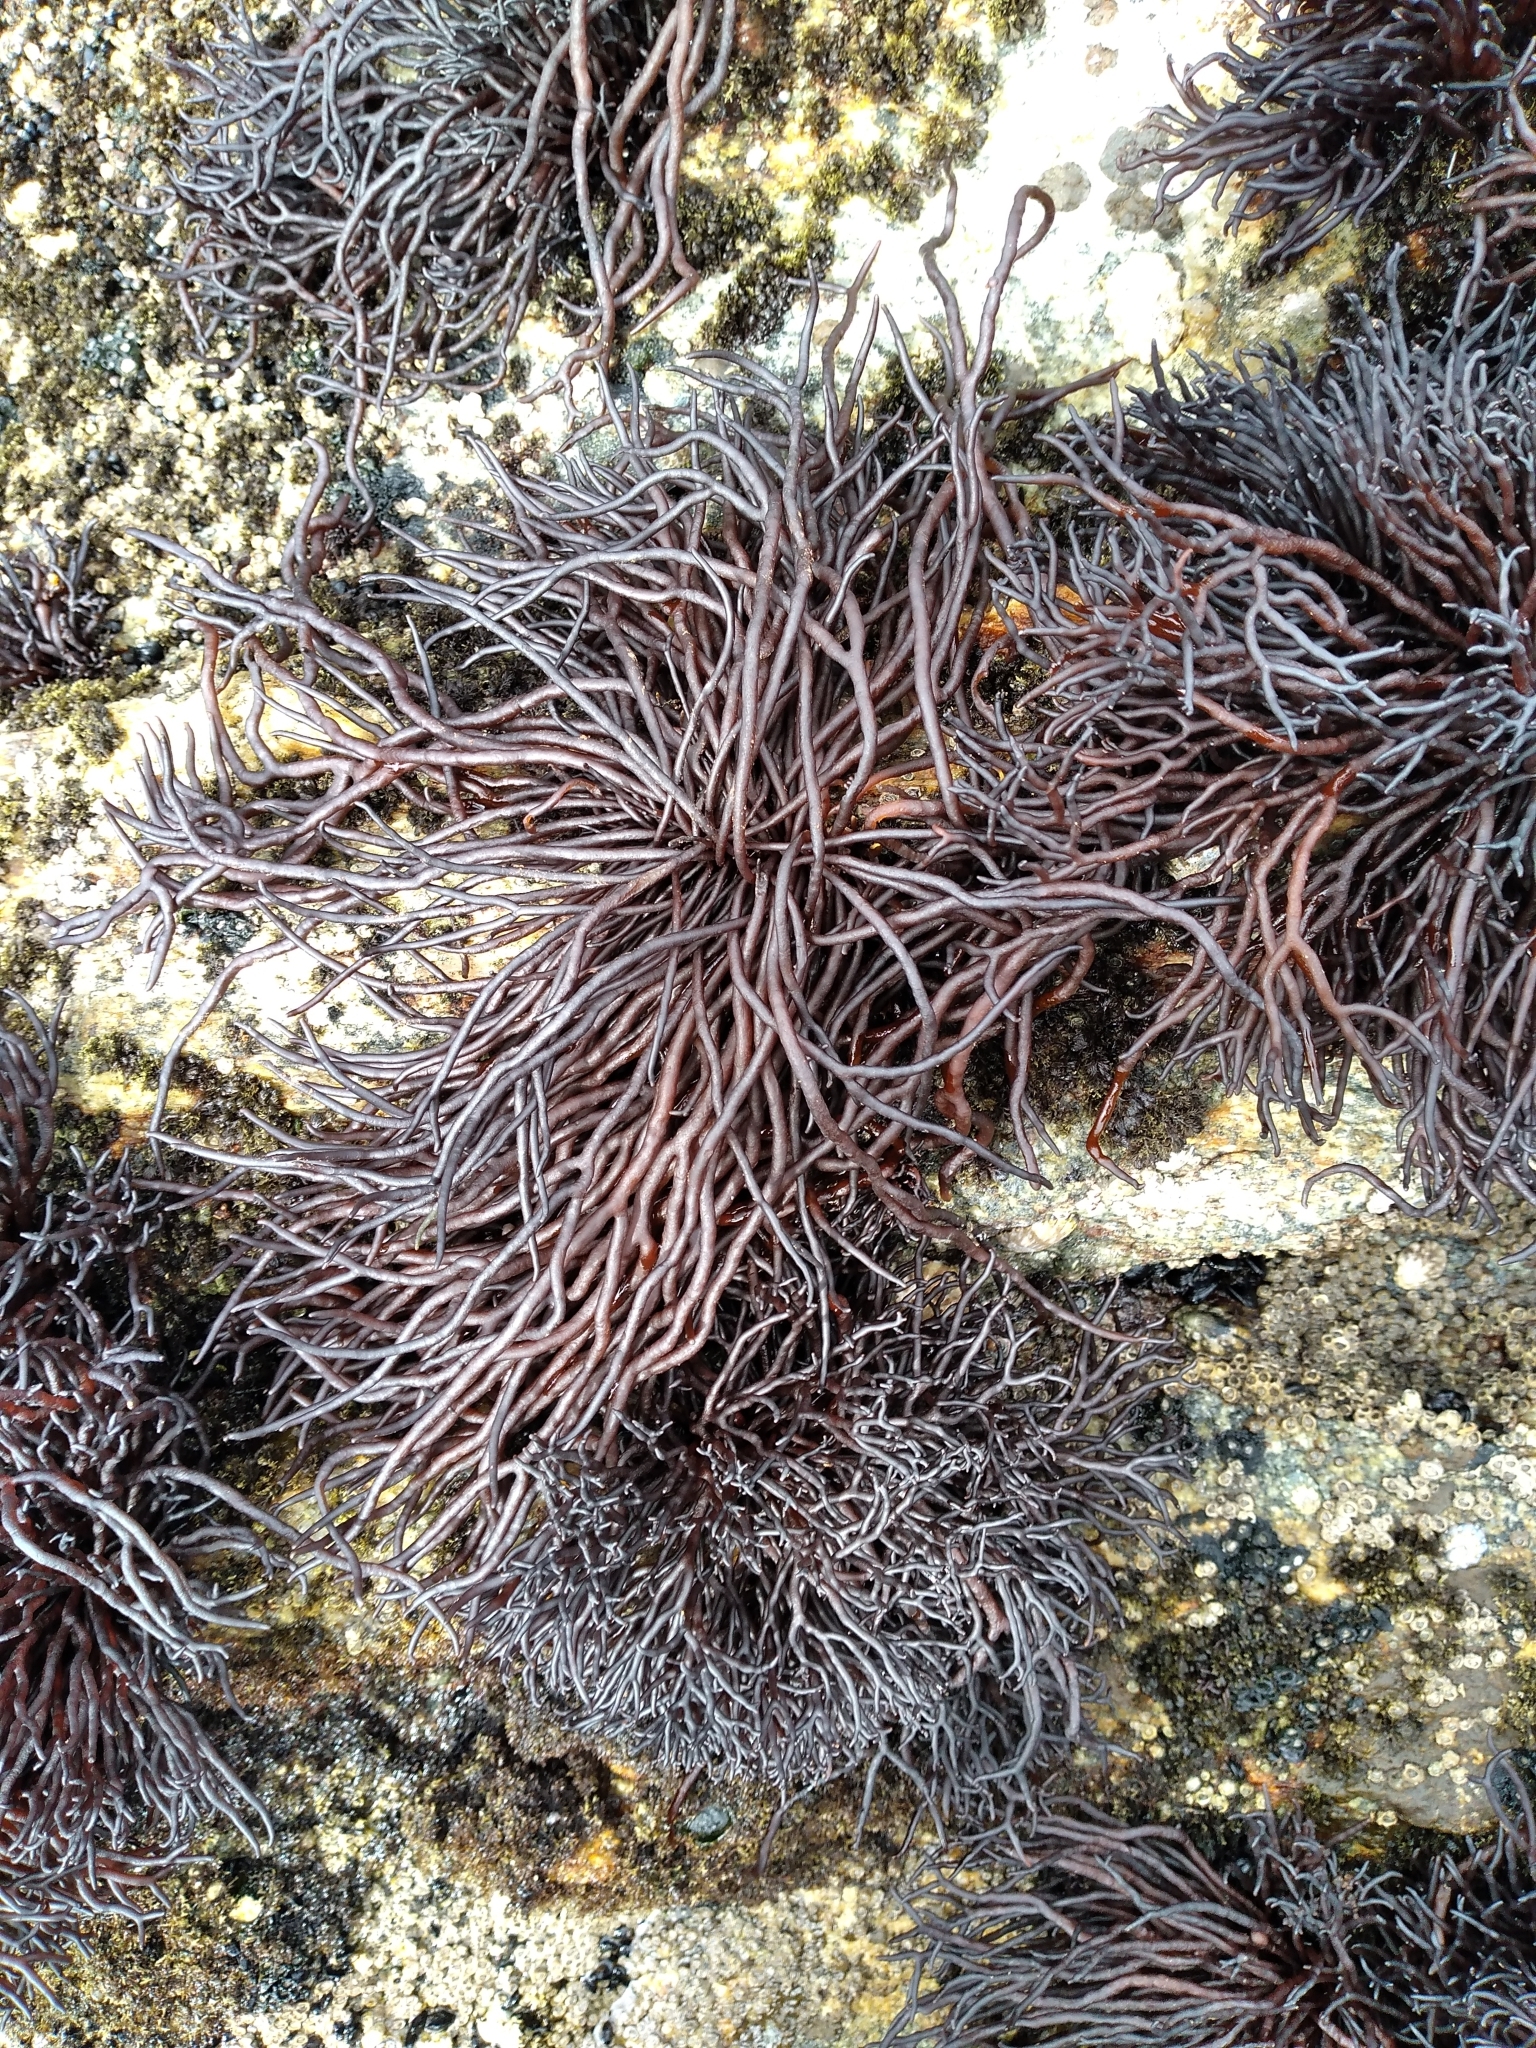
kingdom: Plantae
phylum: Rhodophyta
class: Florideophyceae
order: Hildenbrandiales
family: Hildenbrandiaceae
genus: Apophlaea
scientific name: Apophlaea lyallii
